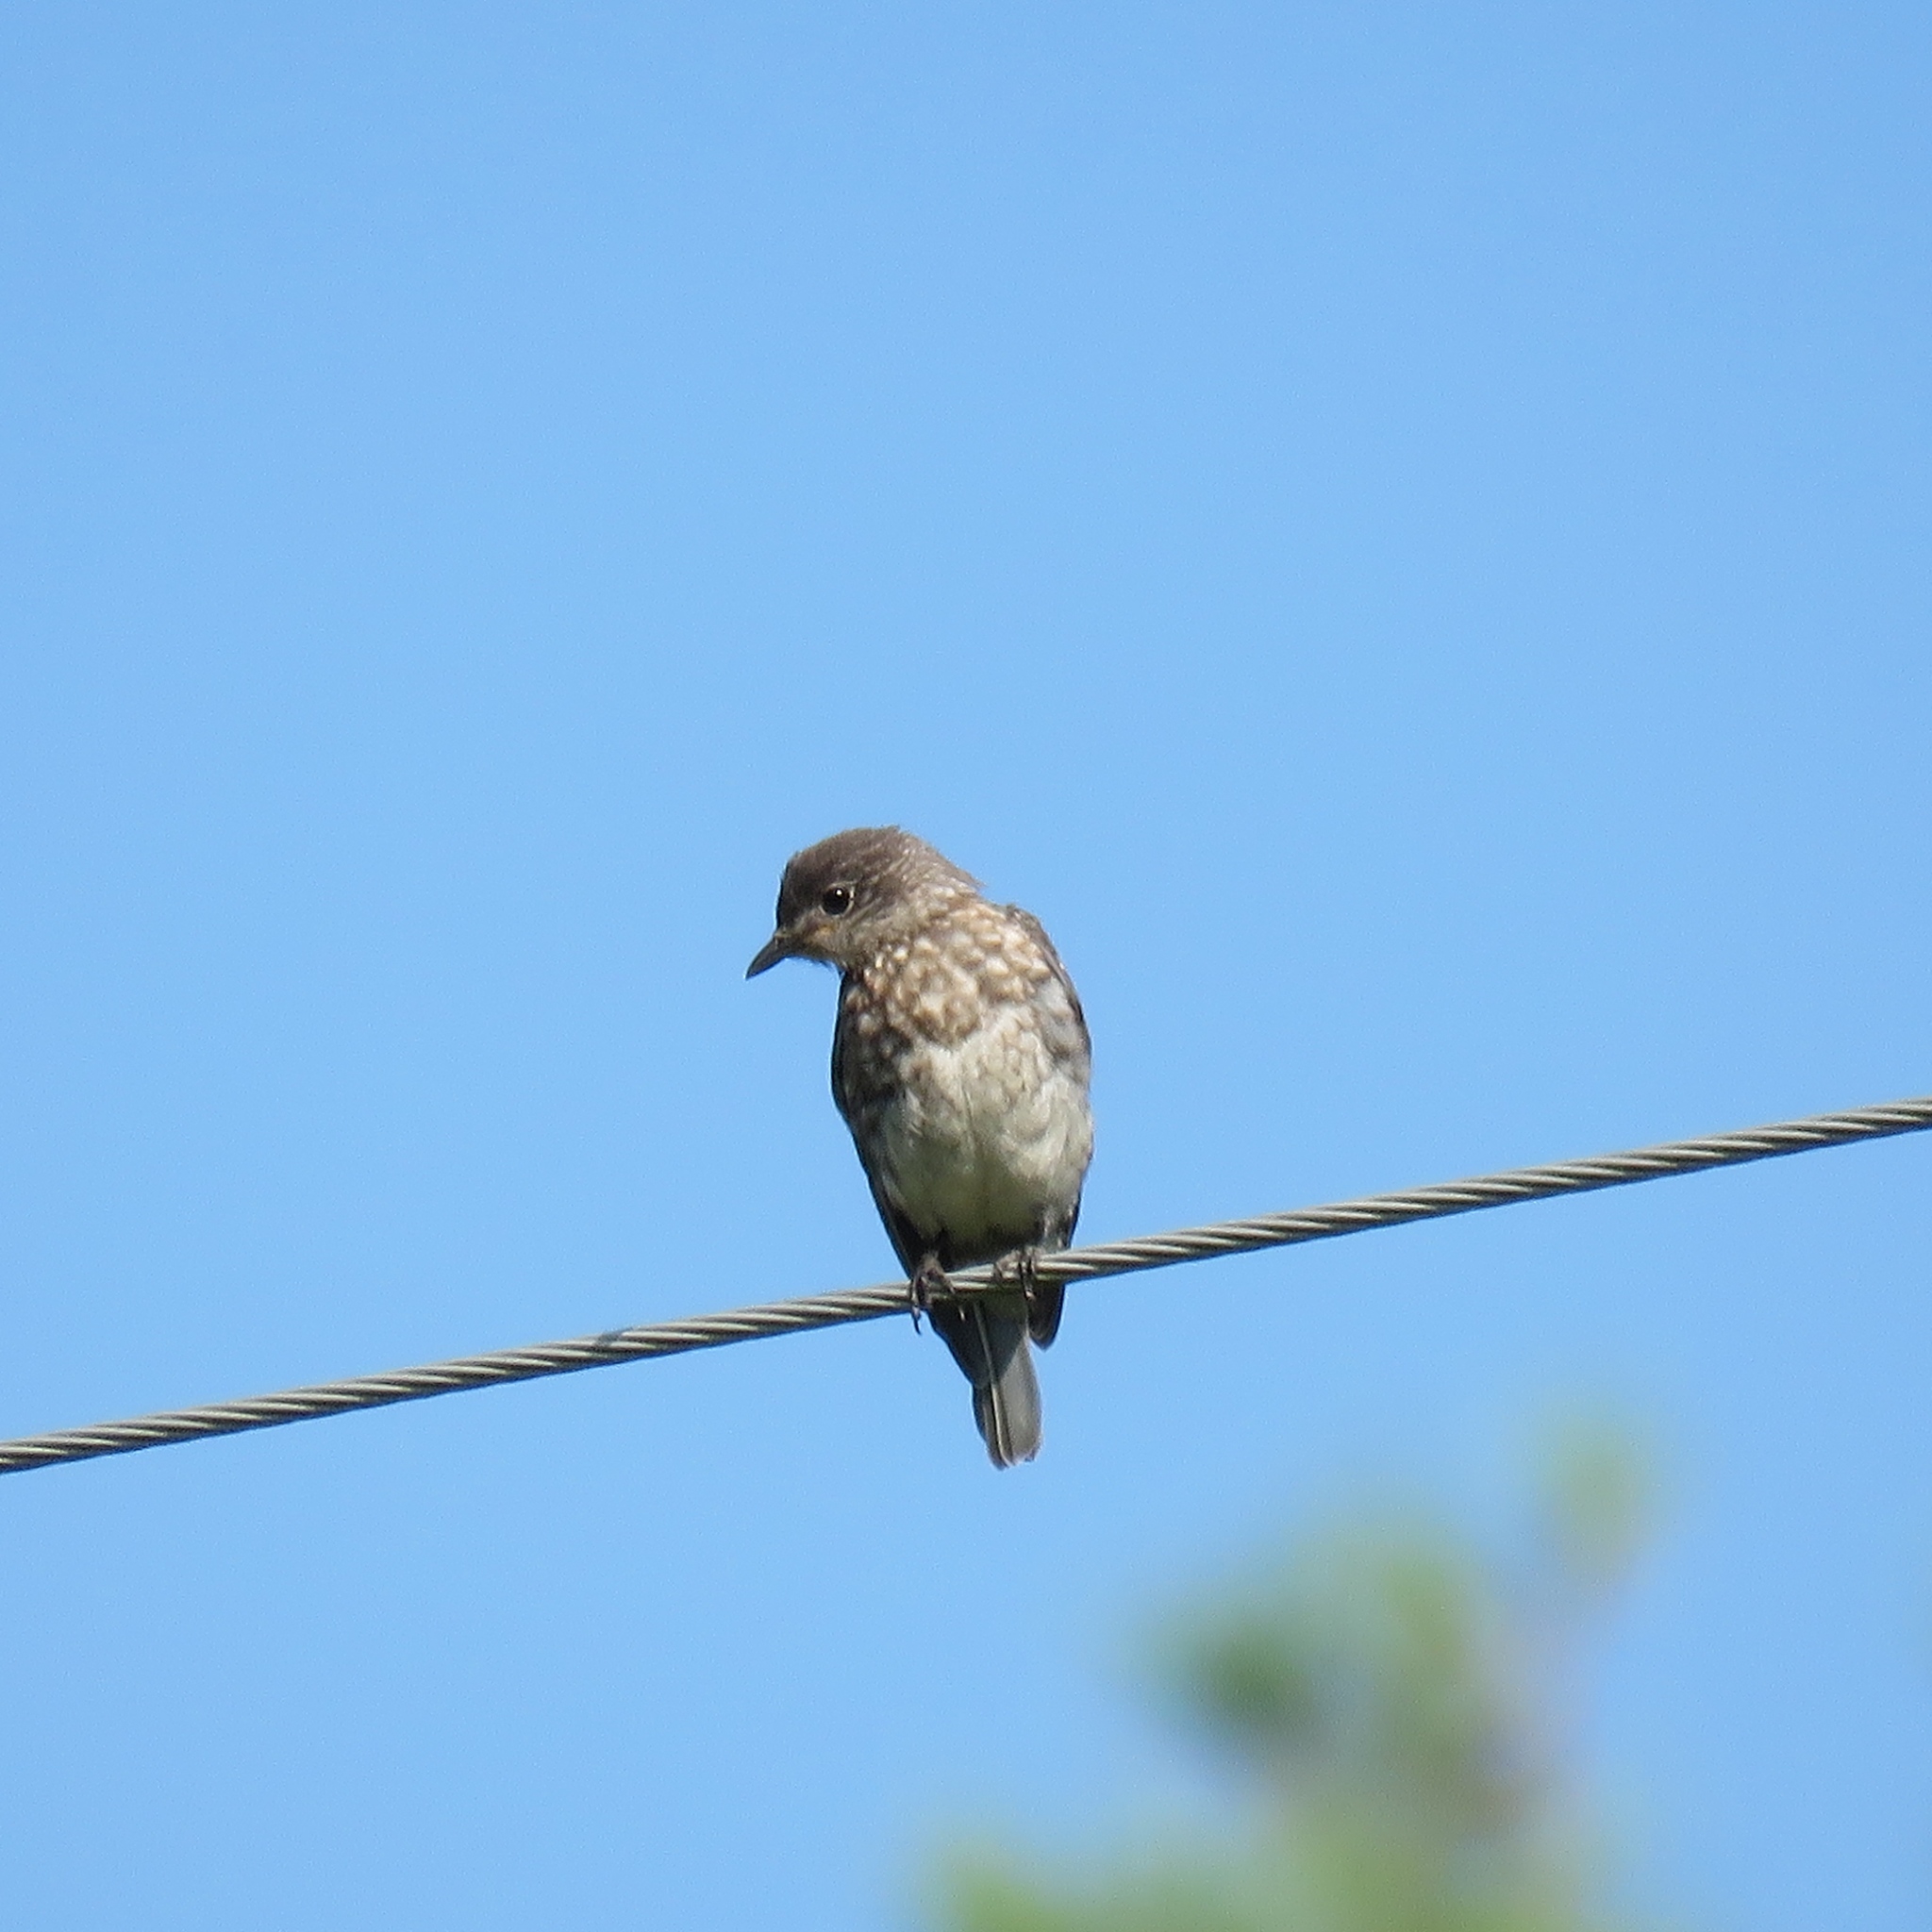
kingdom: Animalia
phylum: Chordata
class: Aves
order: Passeriformes
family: Turdidae
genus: Sialia
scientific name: Sialia sialis
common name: Eastern bluebird
